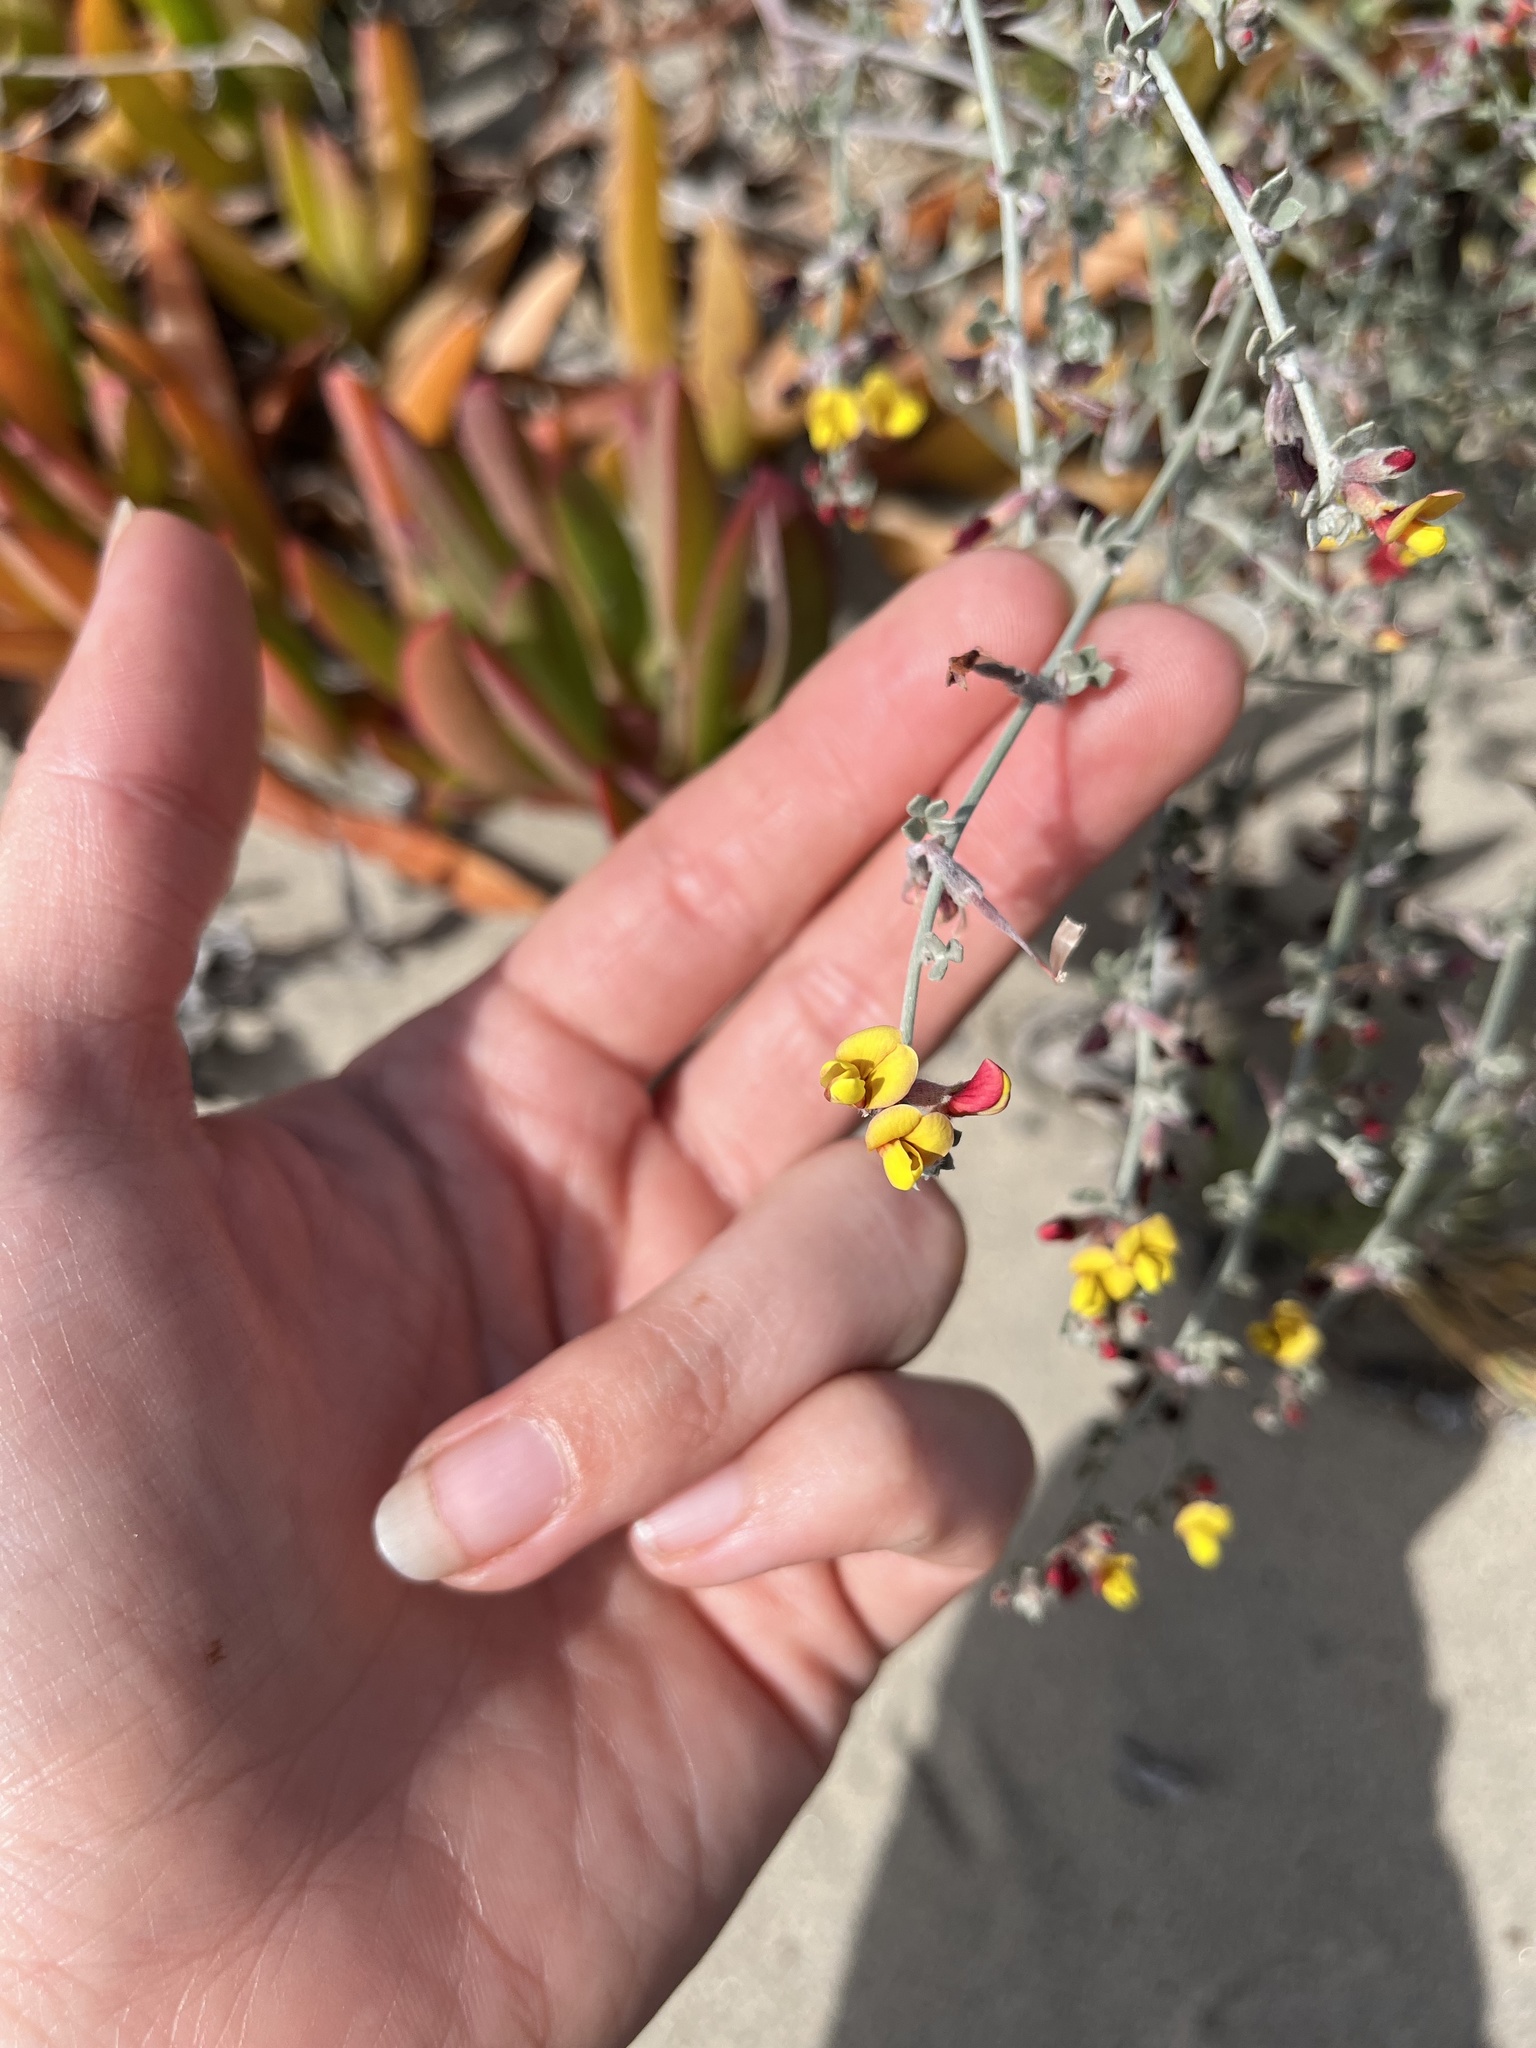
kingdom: Plantae
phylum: Tracheophyta
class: Magnoliopsida
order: Fabales
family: Fabaceae
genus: Acmispon
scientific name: Acmispon distichus
